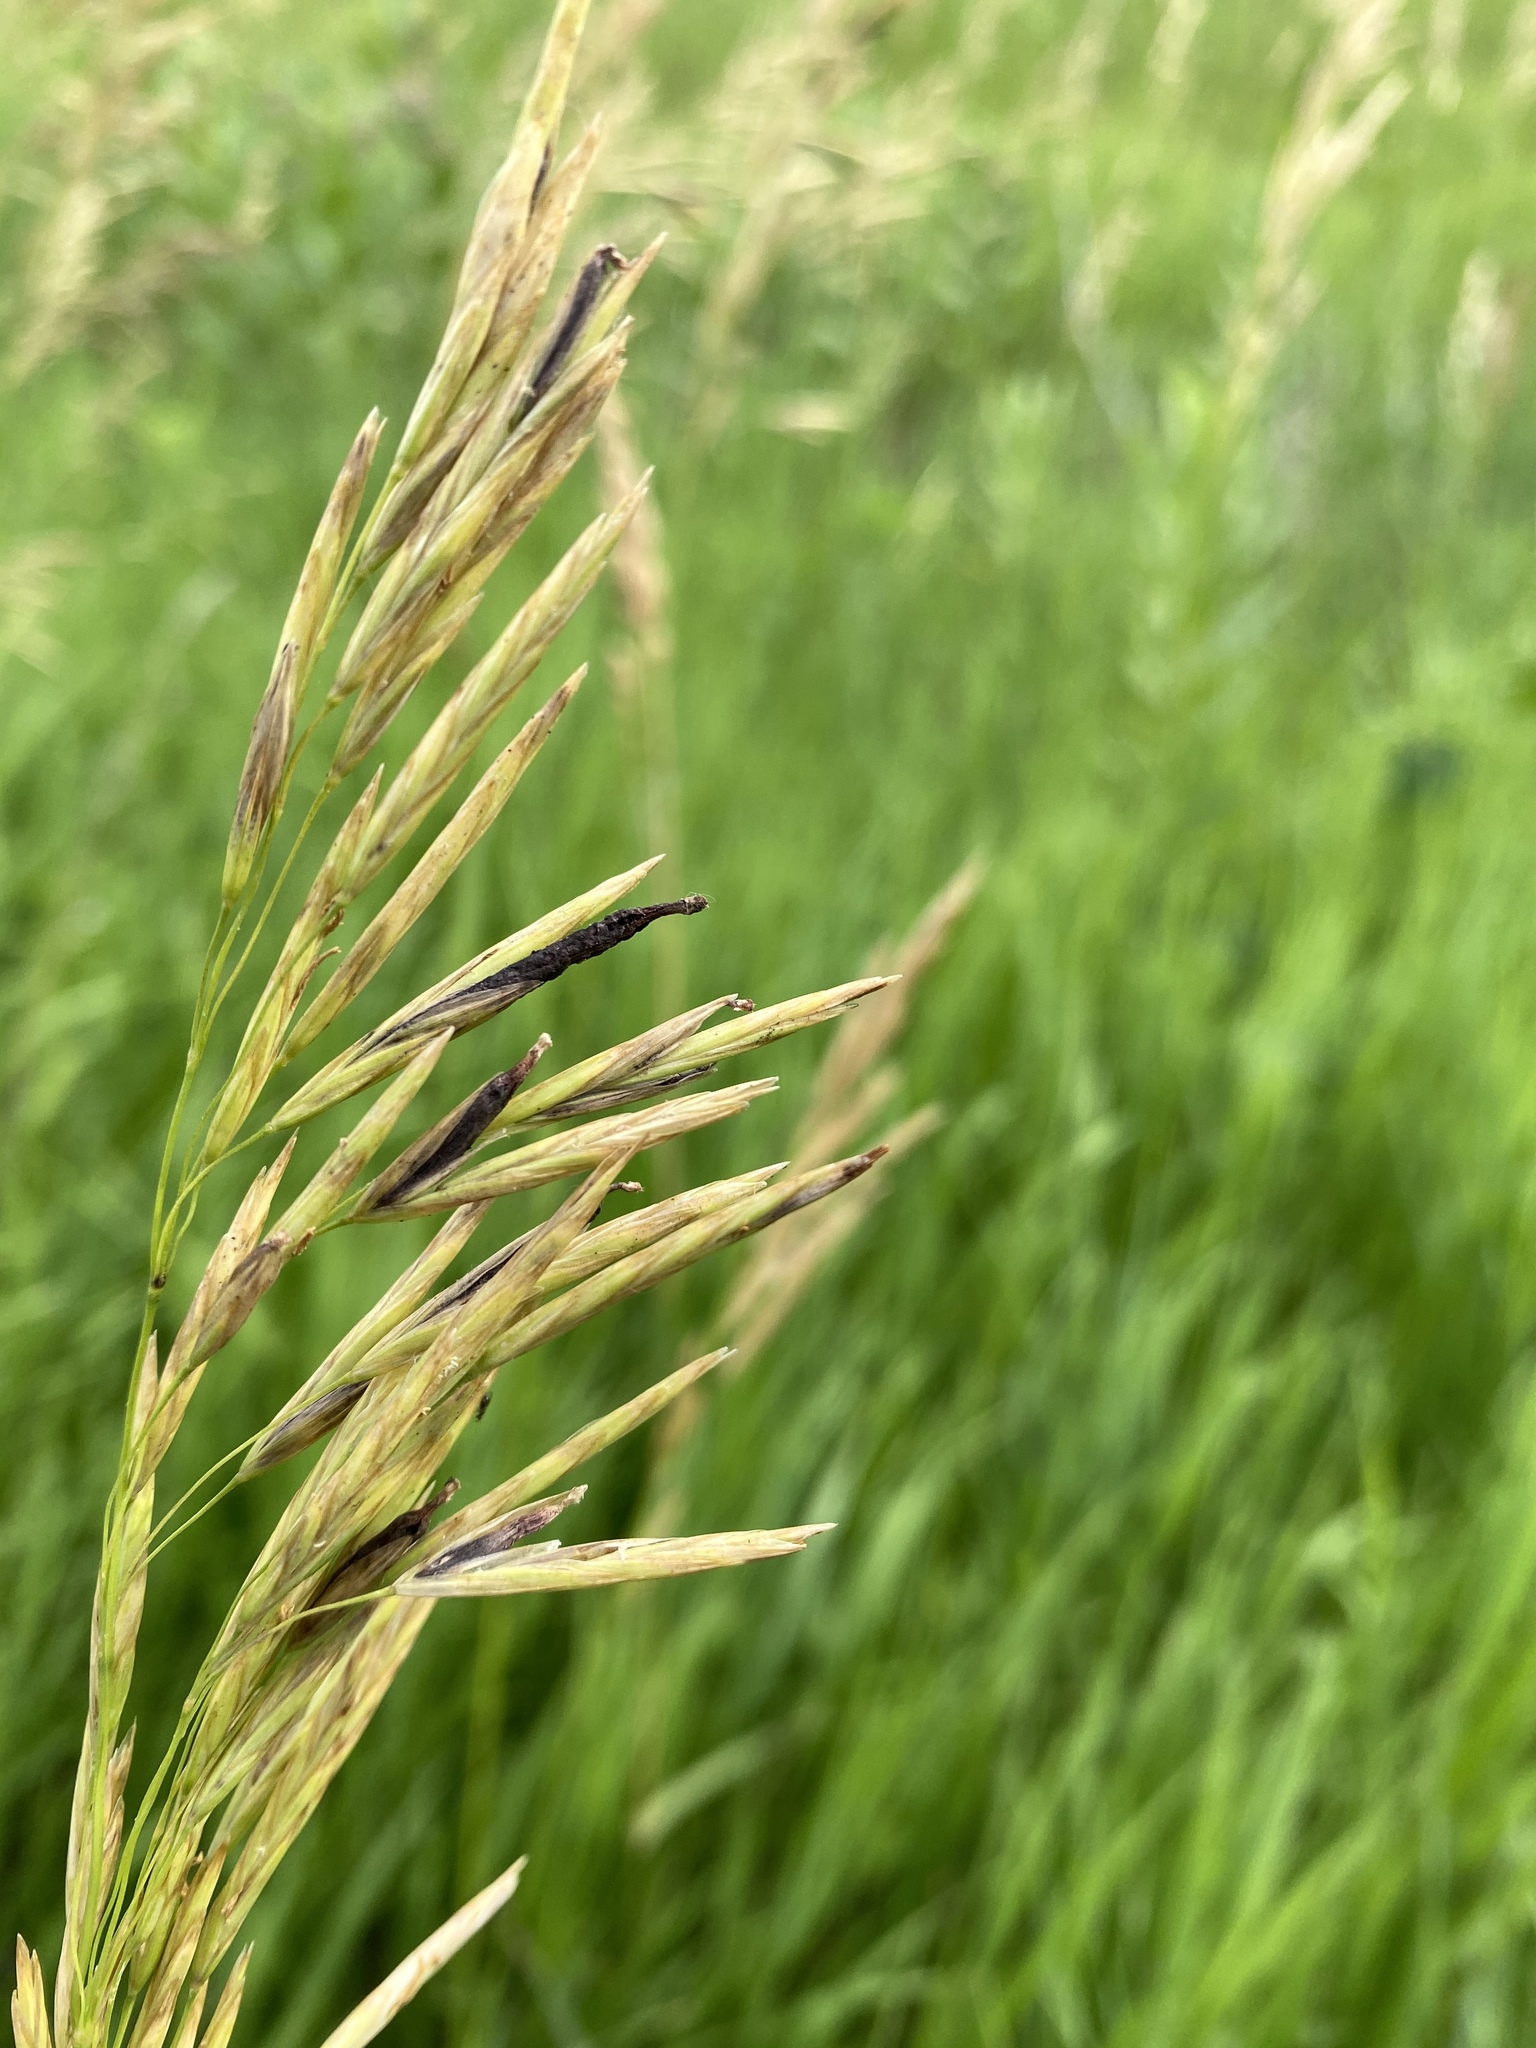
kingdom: Fungi
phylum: Ascomycota
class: Sordariomycetes
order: Hypocreales
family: Clavicipitaceae
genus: Claviceps
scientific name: Claviceps purpurea
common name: Rye ergot
